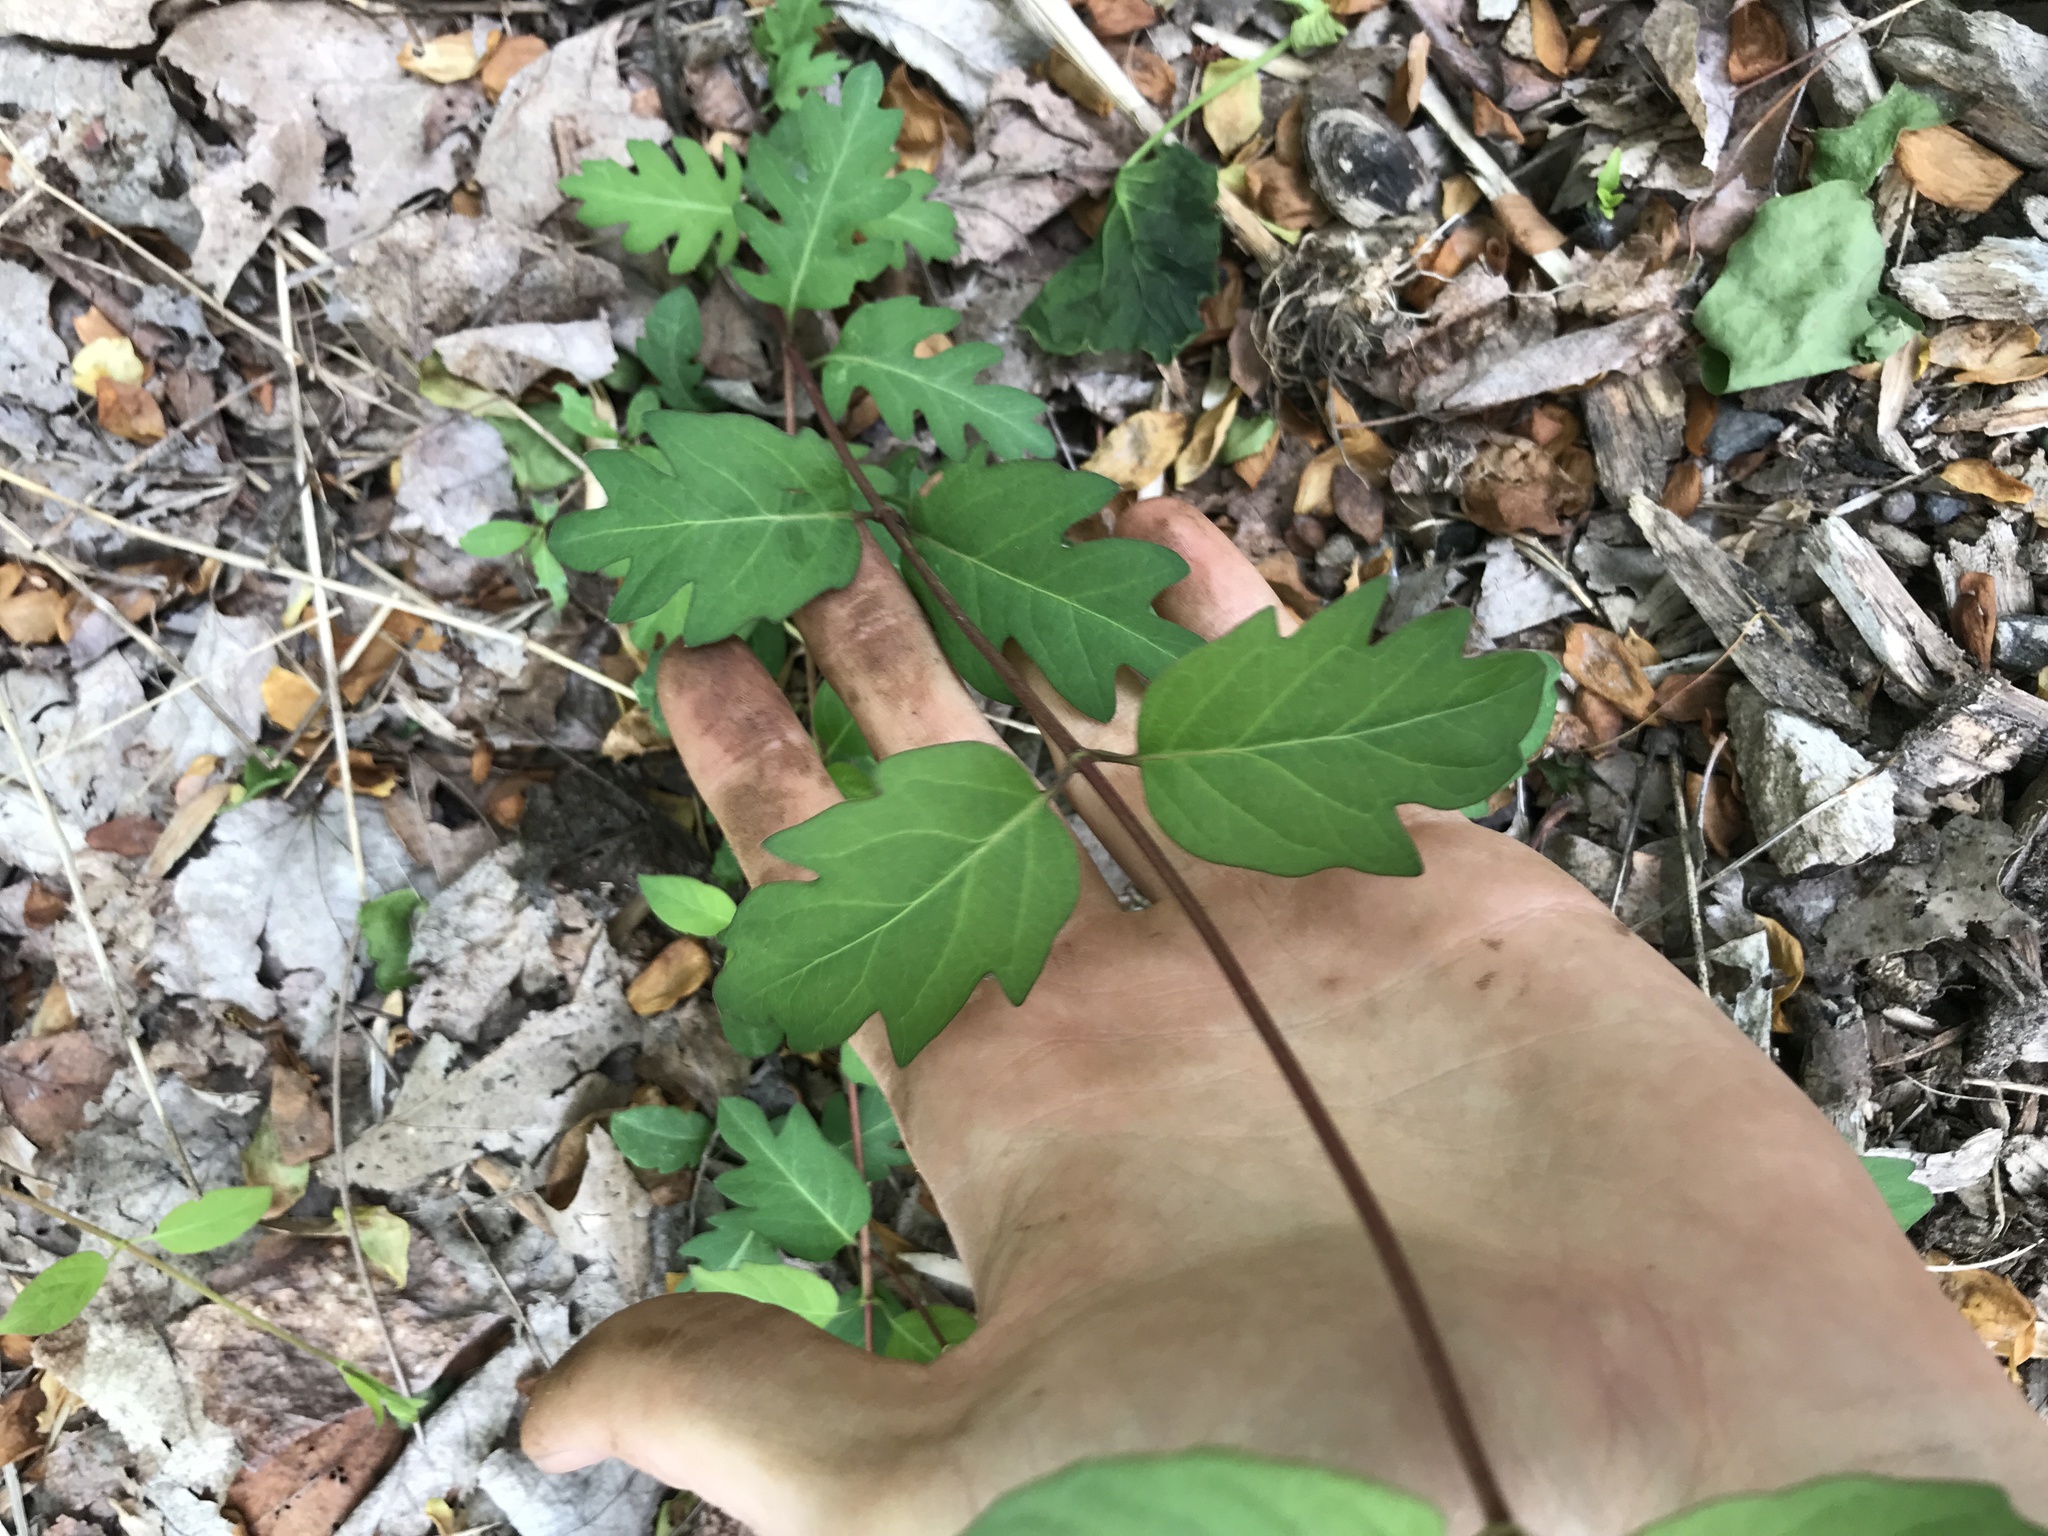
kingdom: Plantae
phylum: Tracheophyta
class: Magnoliopsida
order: Dipsacales
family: Caprifoliaceae
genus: Lonicera
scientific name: Lonicera japonica
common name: Japanese honeysuckle
